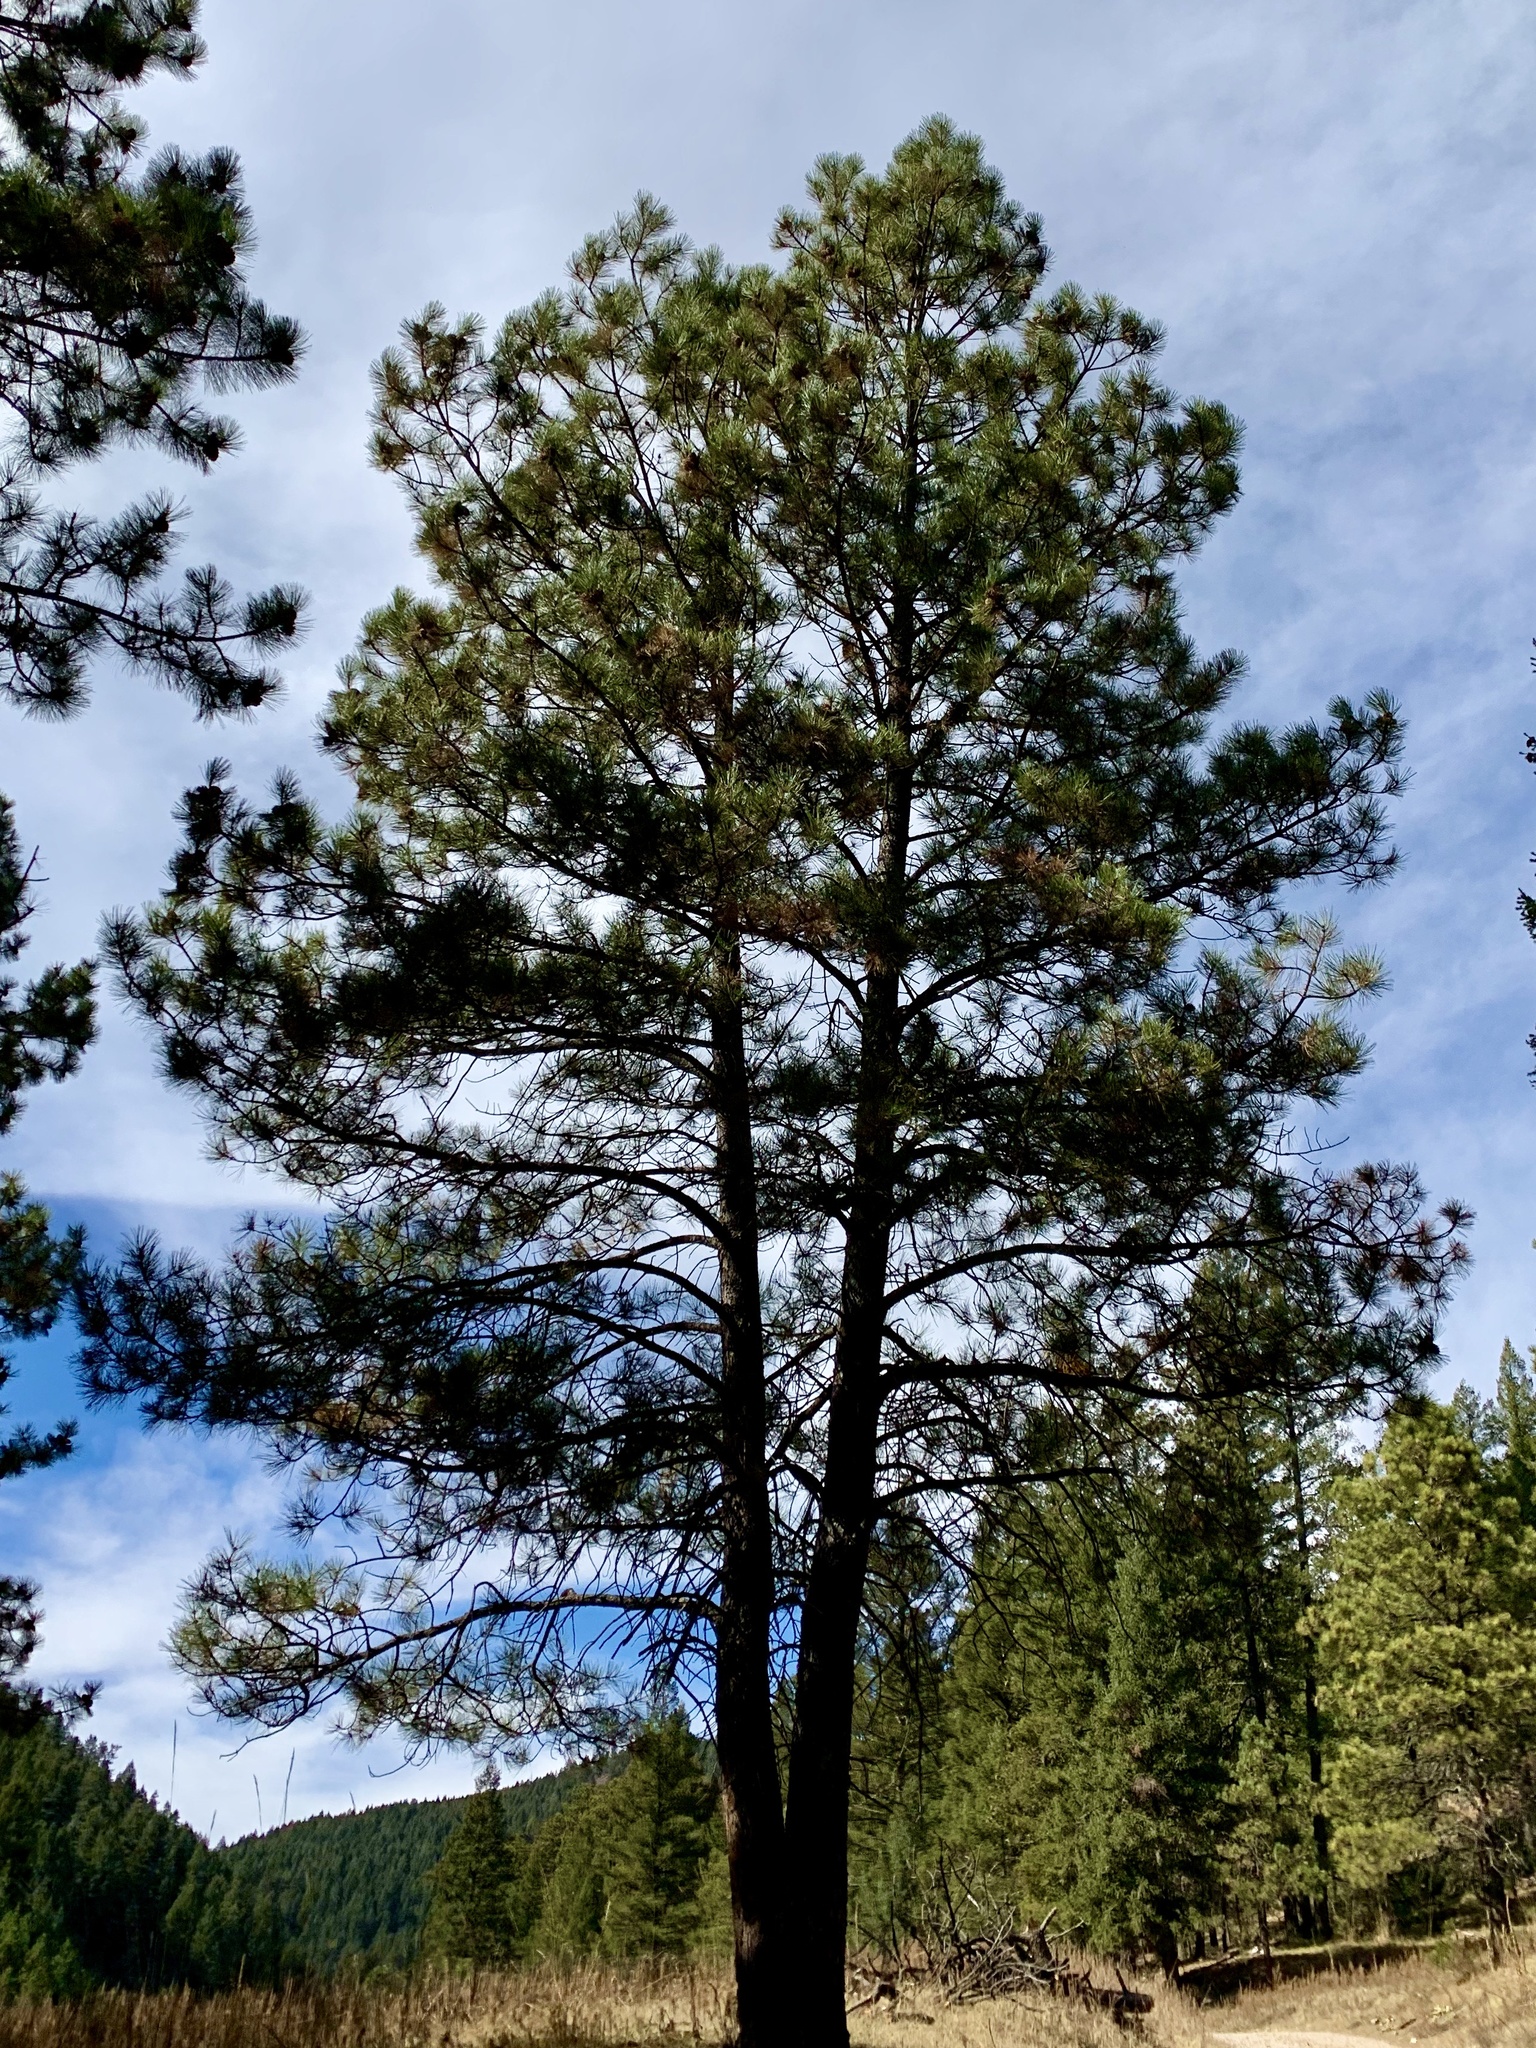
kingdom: Plantae
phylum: Tracheophyta
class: Pinopsida
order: Pinales
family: Pinaceae
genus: Pinus
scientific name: Pinus ponderosa
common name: Western yellow-pine
